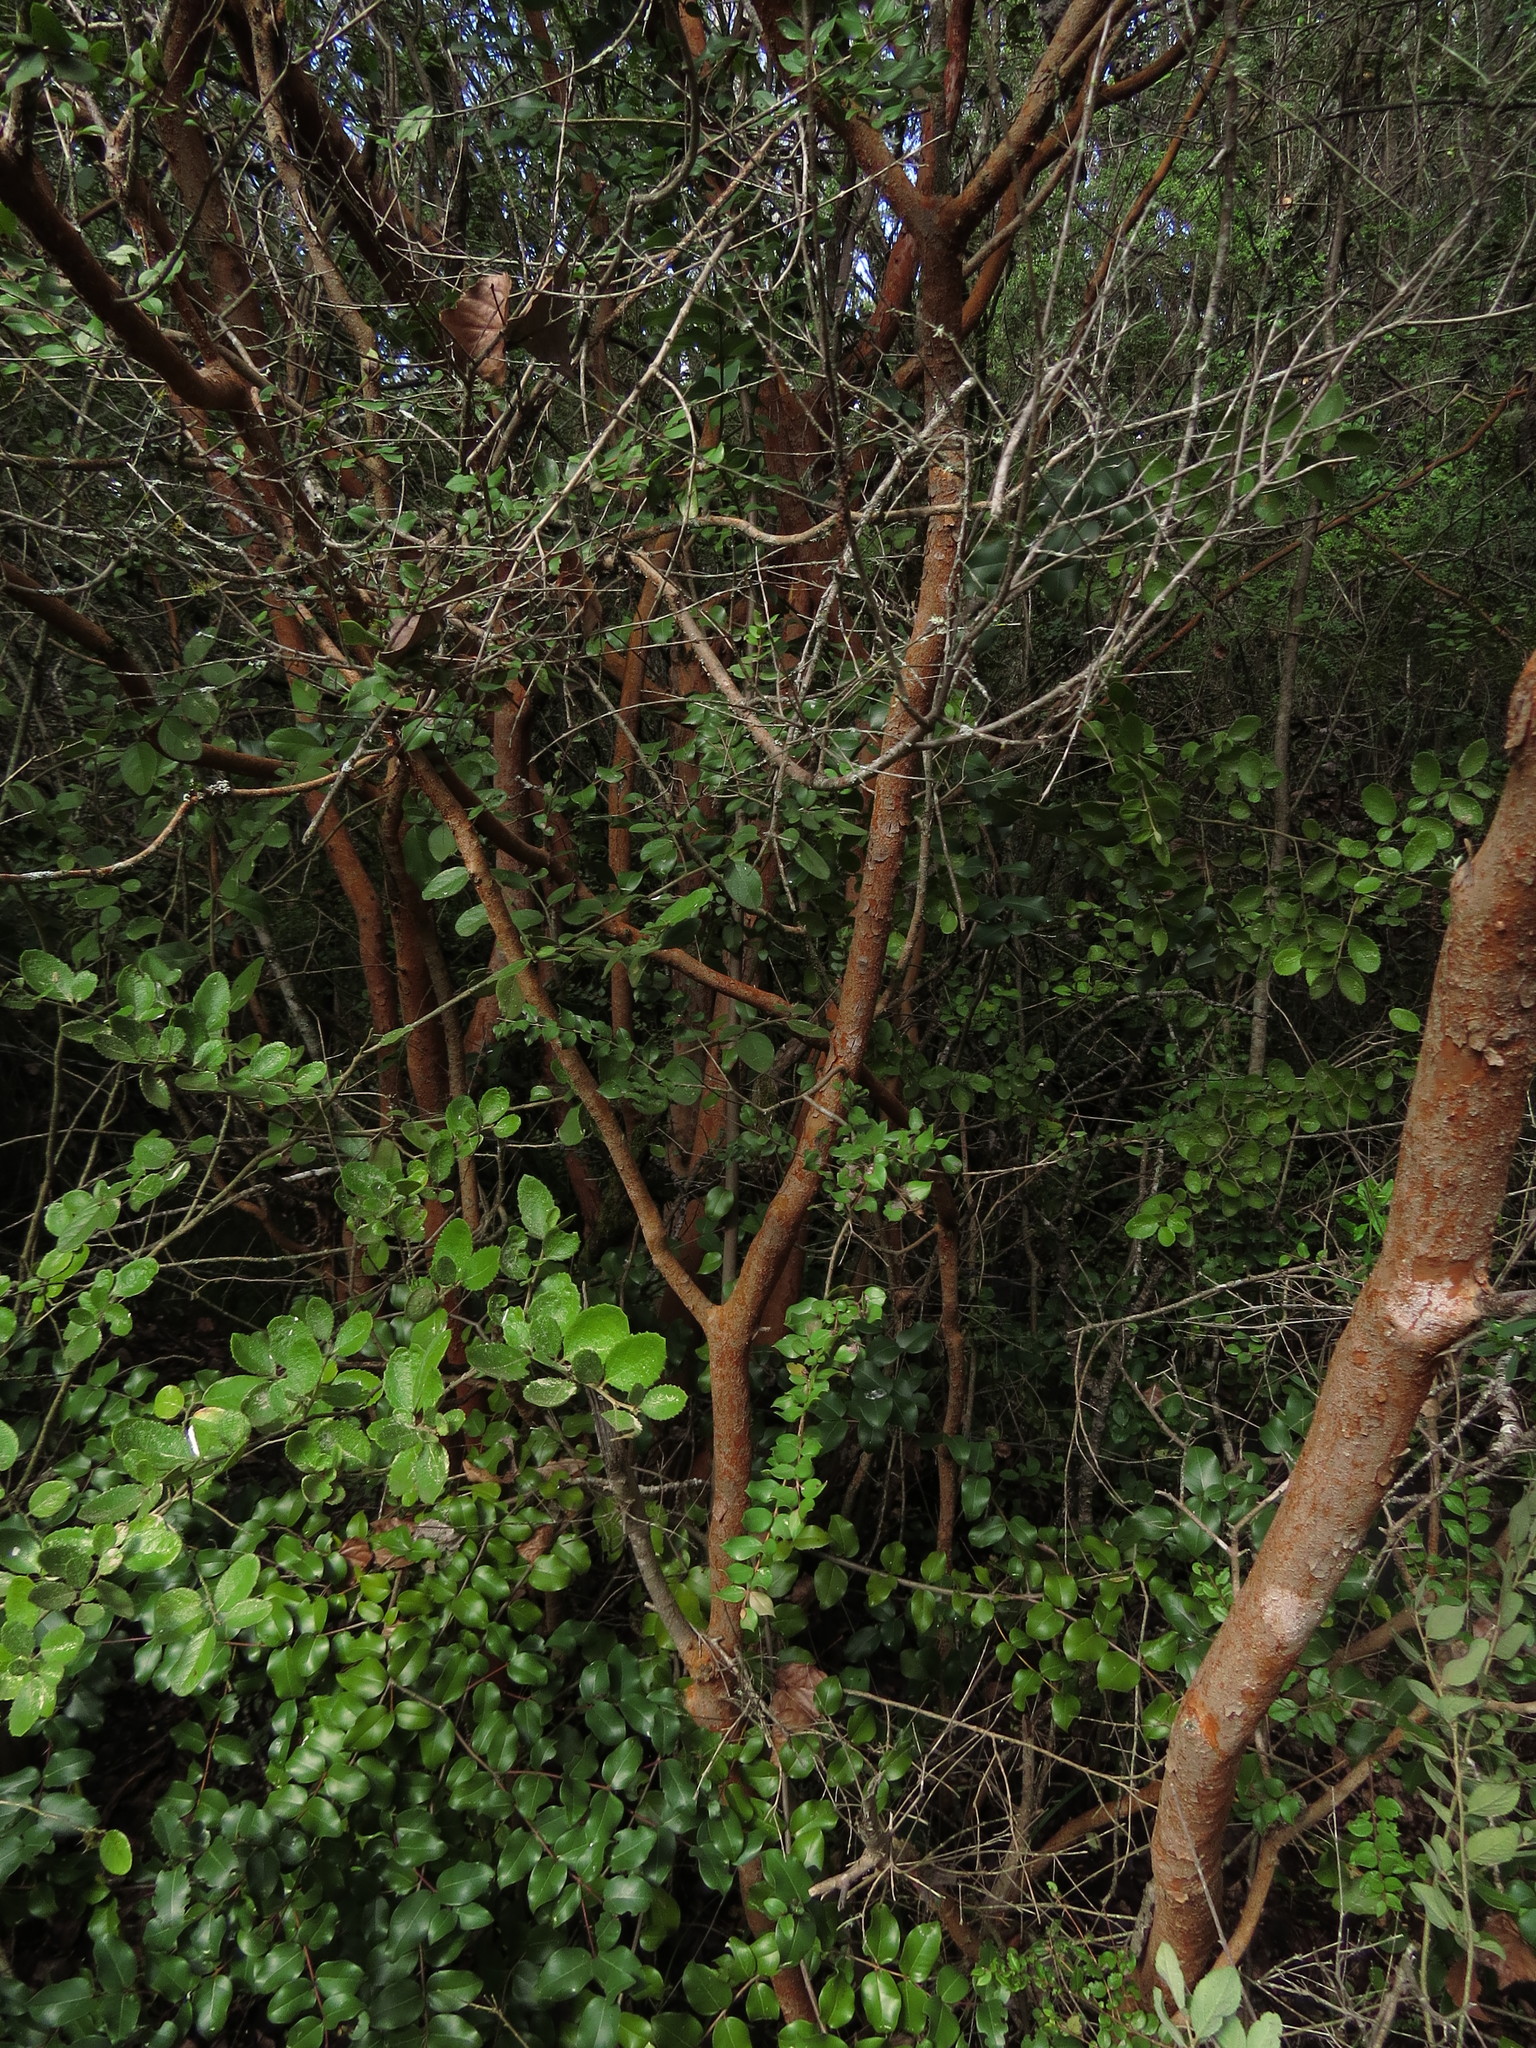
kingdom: Plantae
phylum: Tracheophyta
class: Magnoliopsida
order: Myrtales
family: Myrtaceae
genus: Luma
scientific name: Luma apiculata
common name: Chilean myrtle
